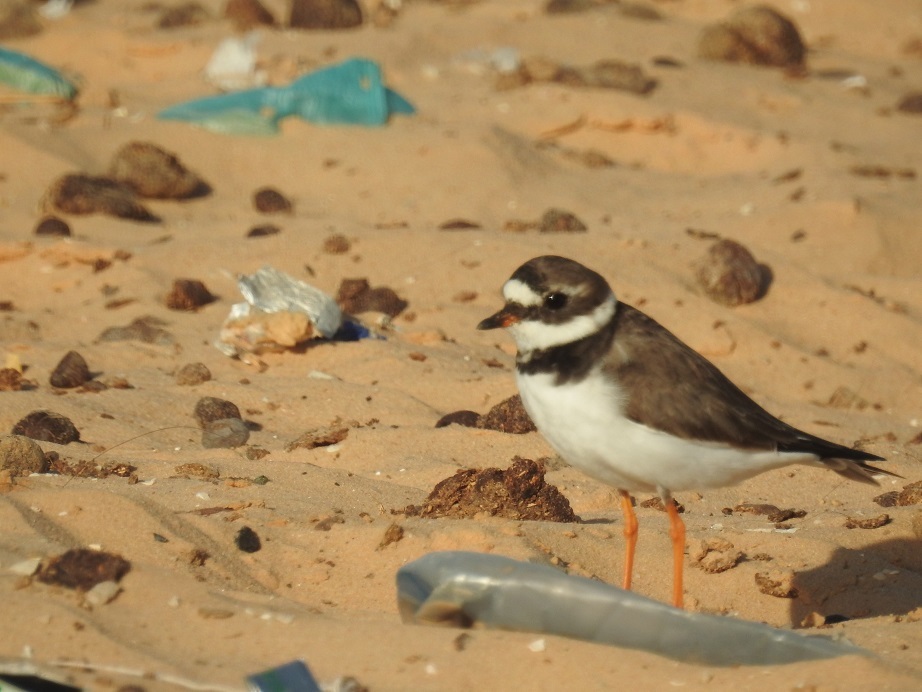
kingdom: Animalia
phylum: Chordata
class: Aves
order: Charadriiformes
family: Charadriidae
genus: Charadrius
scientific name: Charadrius hiaticula
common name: Common ringed plover
